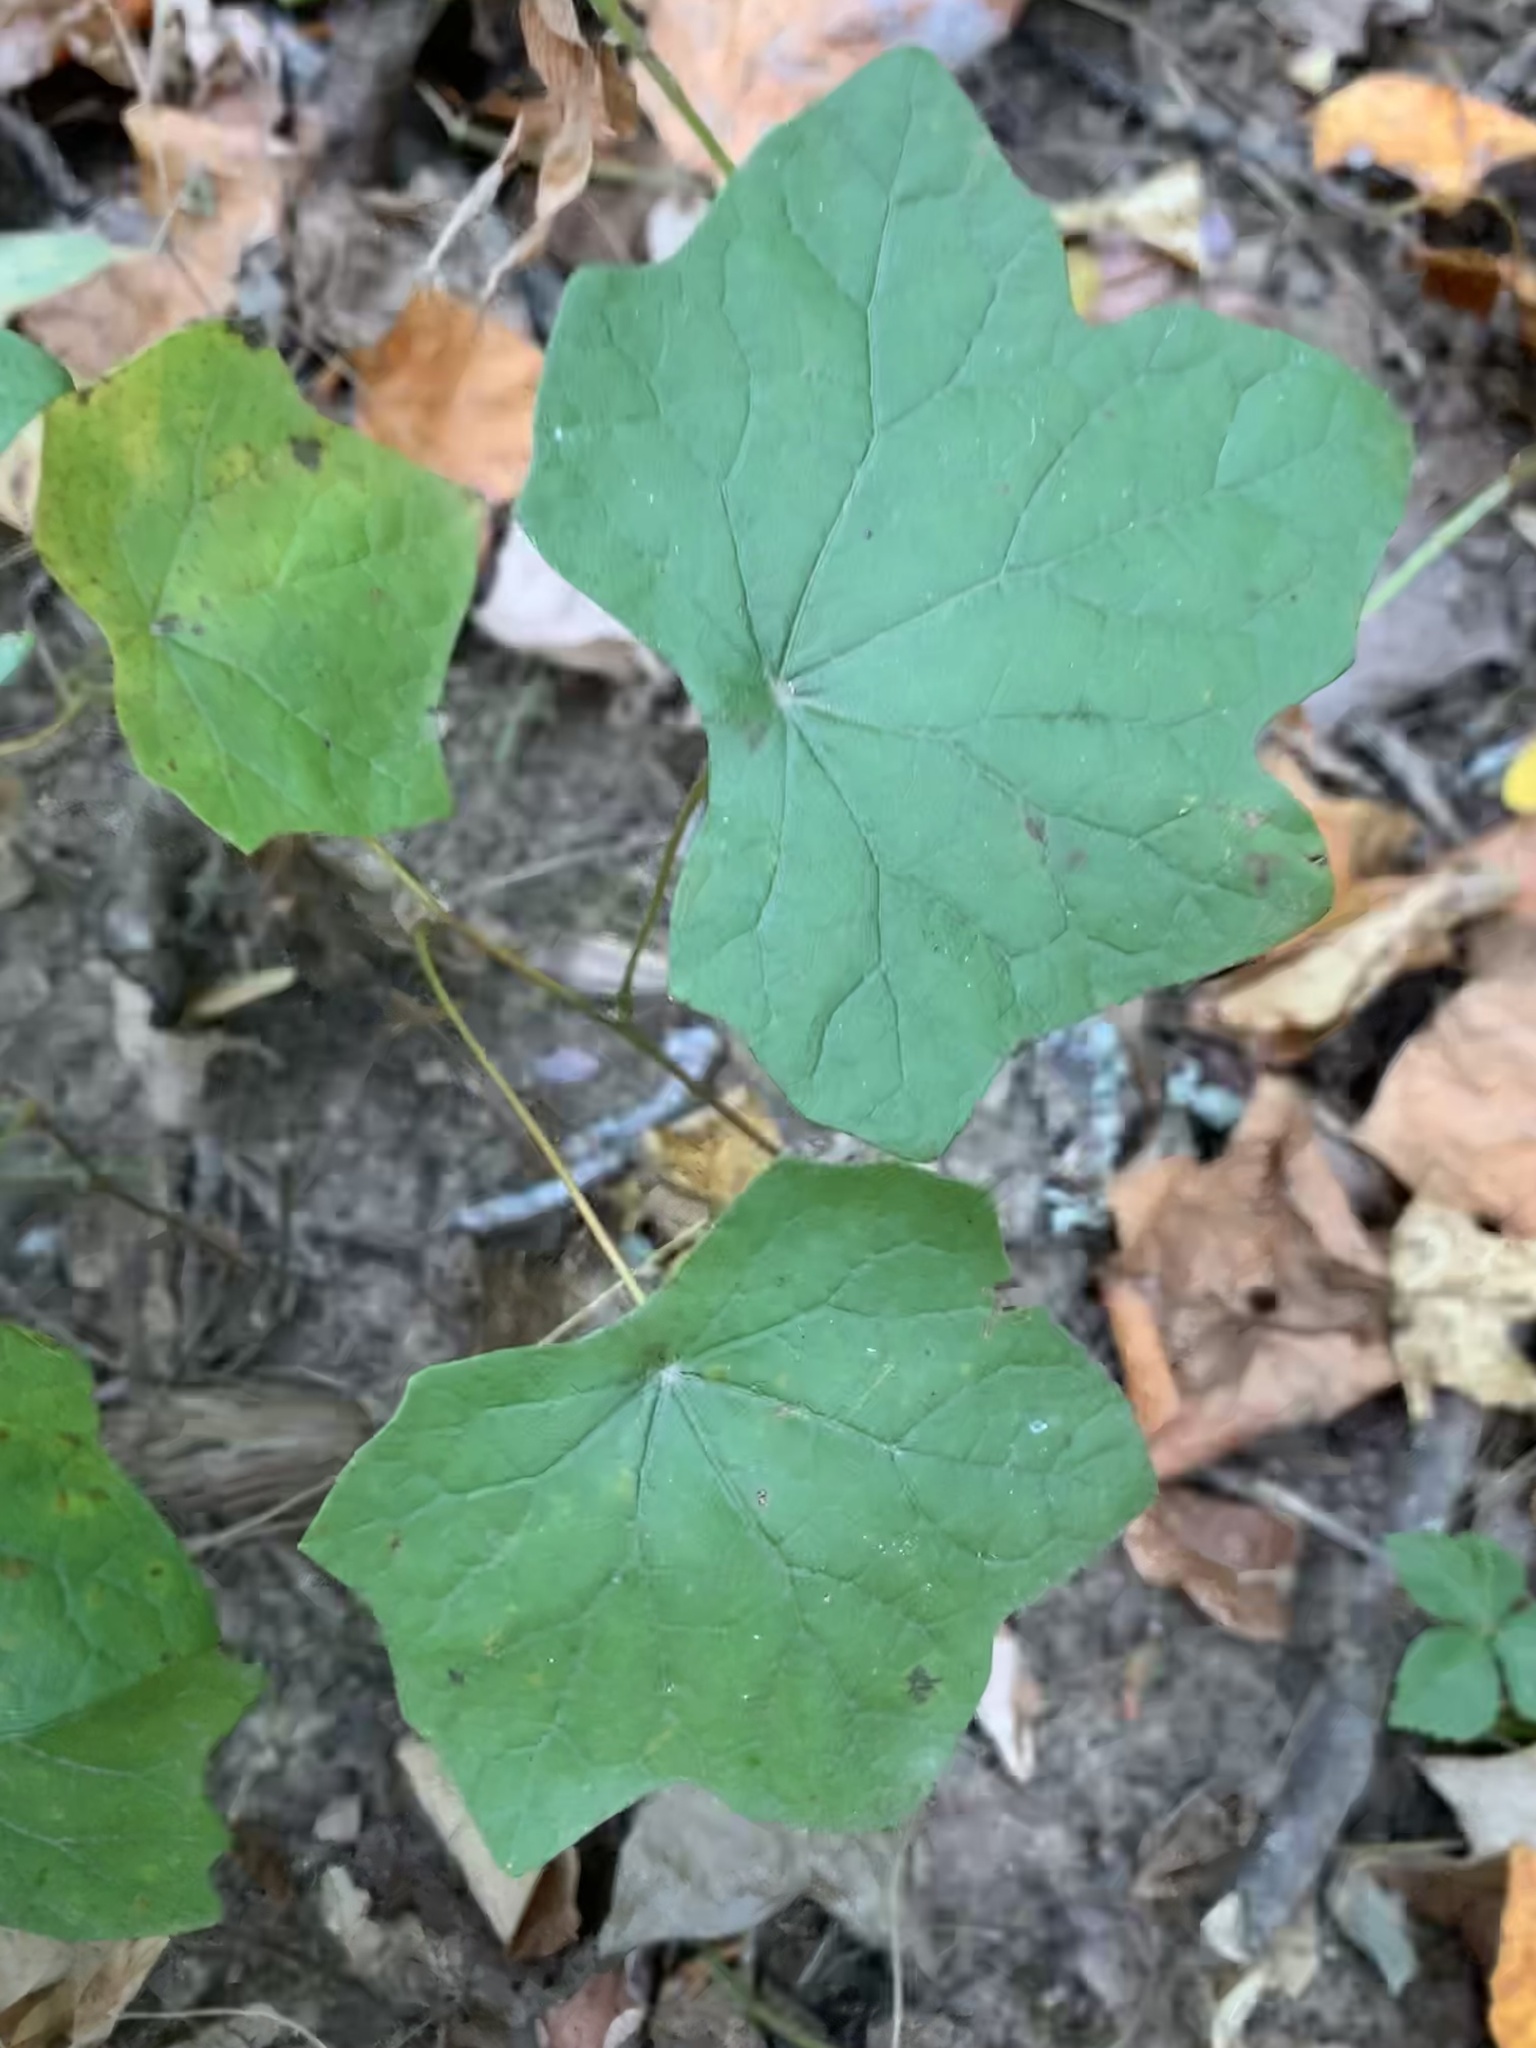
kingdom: Plantae
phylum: Tracheophyta
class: Magnoliopsida
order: Ranunculales
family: Menispermaceae
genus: Menispermum
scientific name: Menispermum canadense
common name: Moonseed
